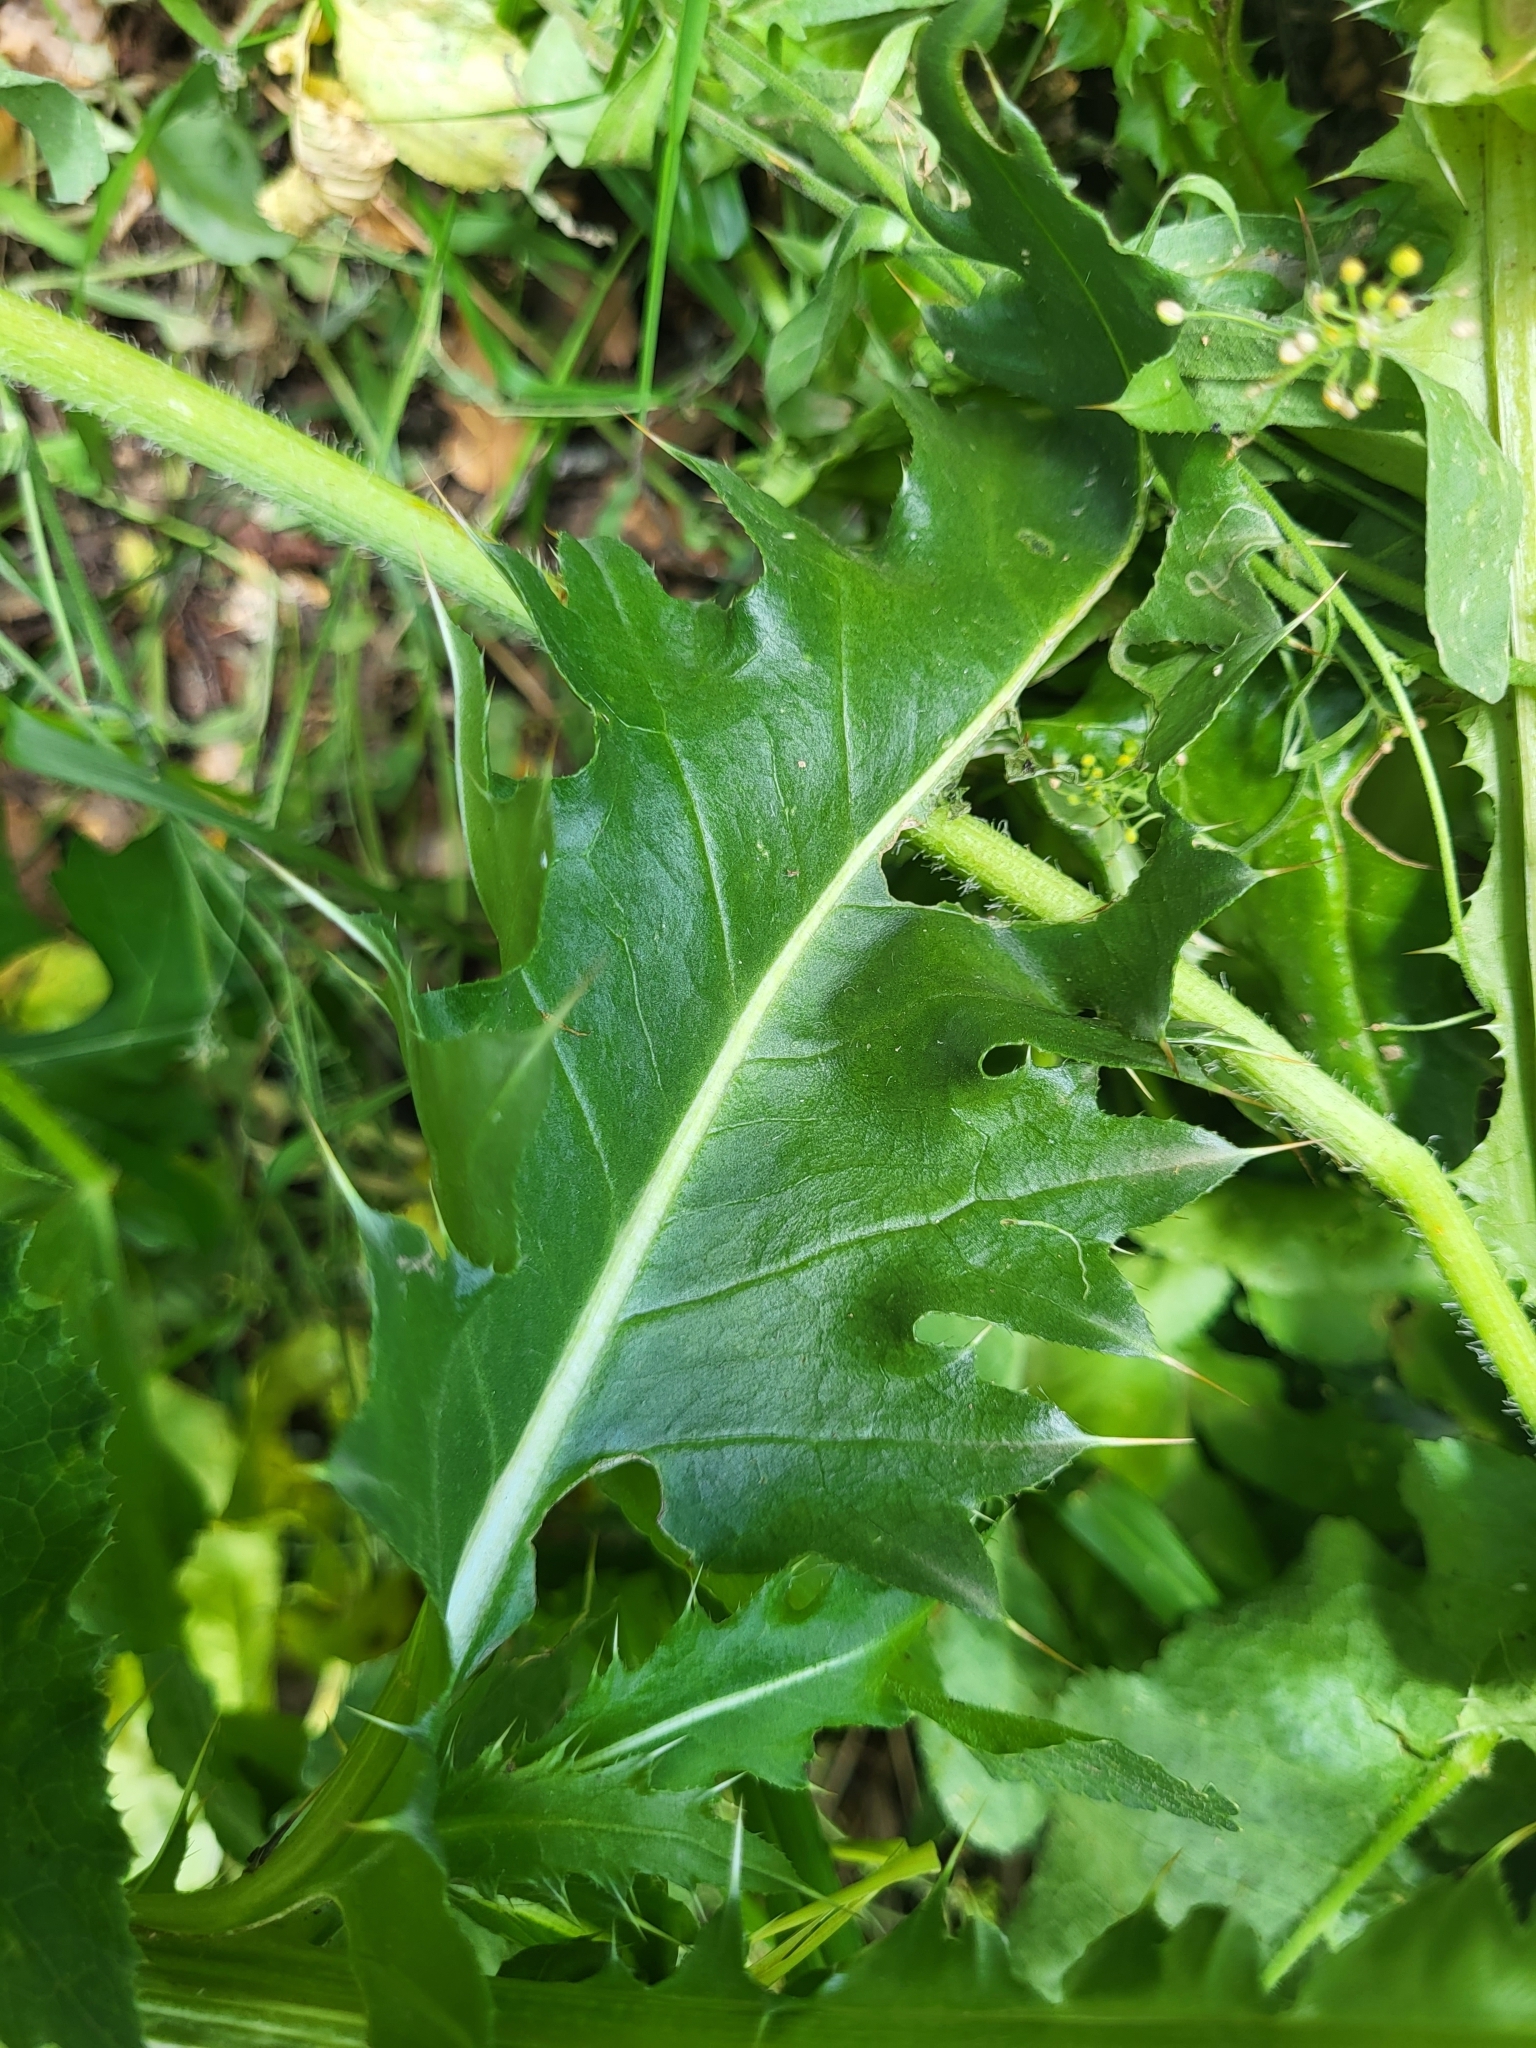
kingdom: Plantae
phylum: Tracheophyta
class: Magnoliopsida
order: Asterales
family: Asteraceae
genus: Carduus
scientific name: Carduus nutans
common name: Musk thistle
